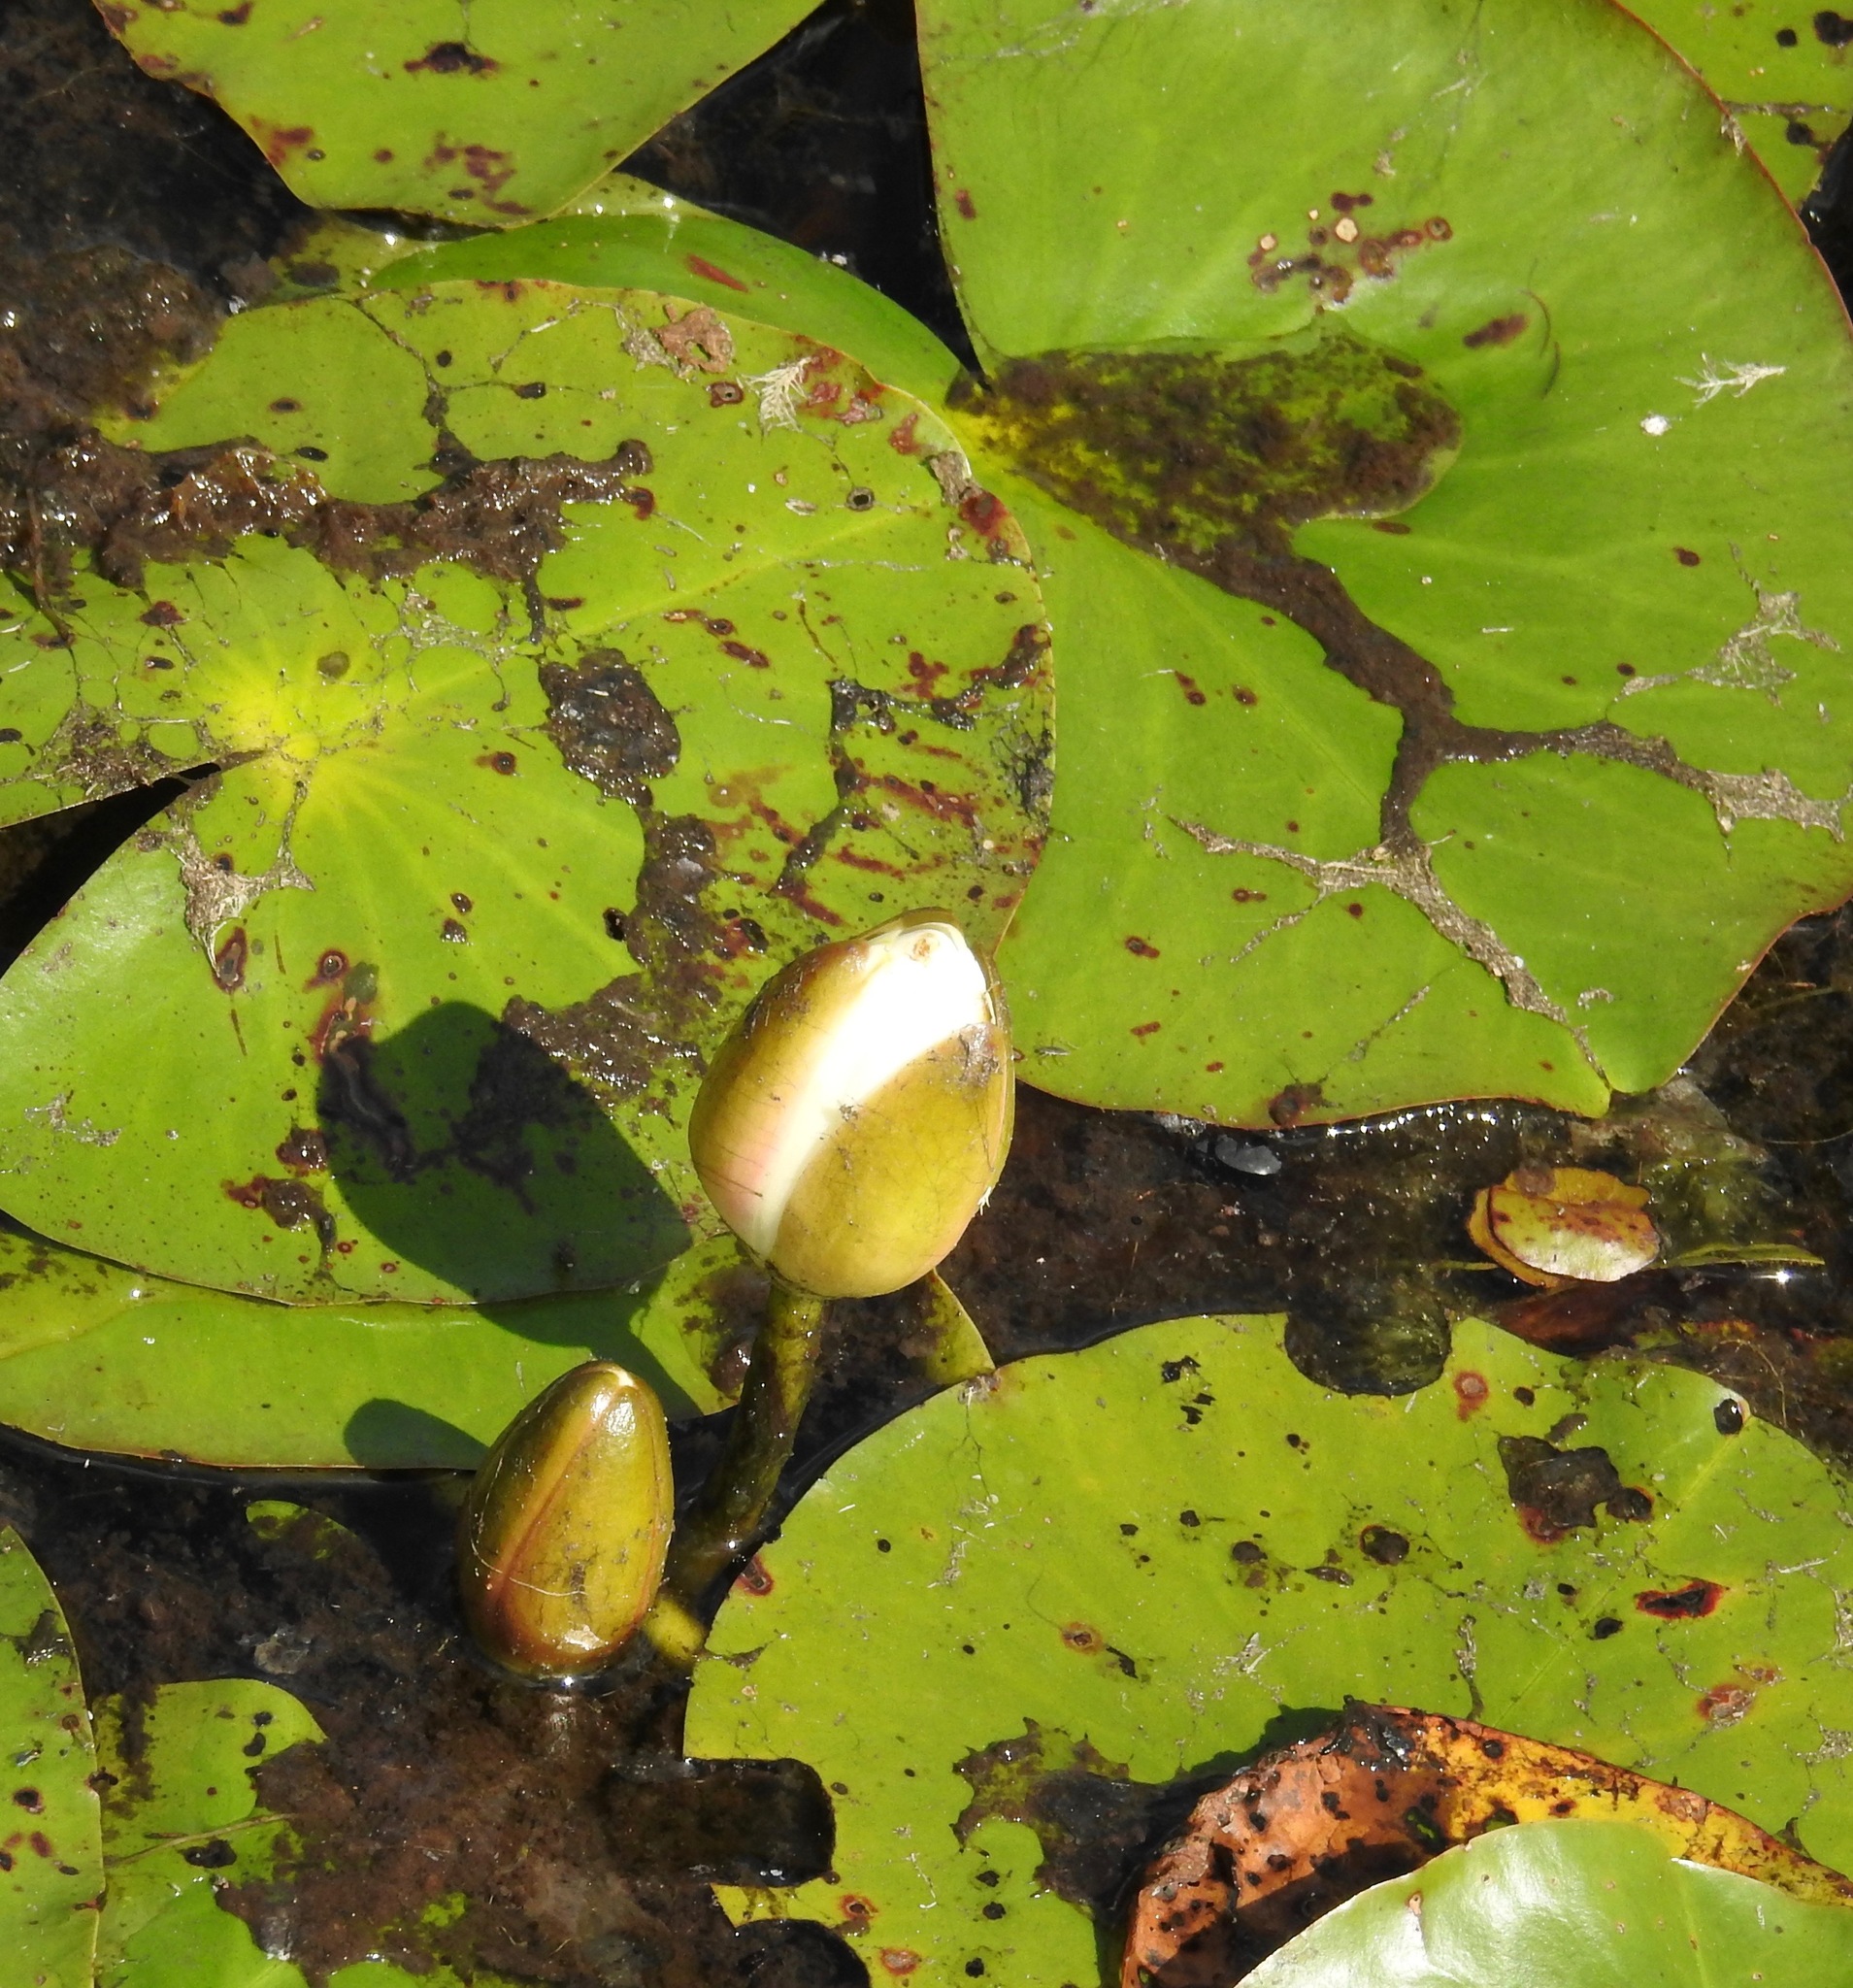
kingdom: Plantae
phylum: Tracheophyta
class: Magnoliopsida
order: Nymphaeales
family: Nymphaeaceae
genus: Nymphaea
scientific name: Nymphaea odorata
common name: Fragrant water-lily
